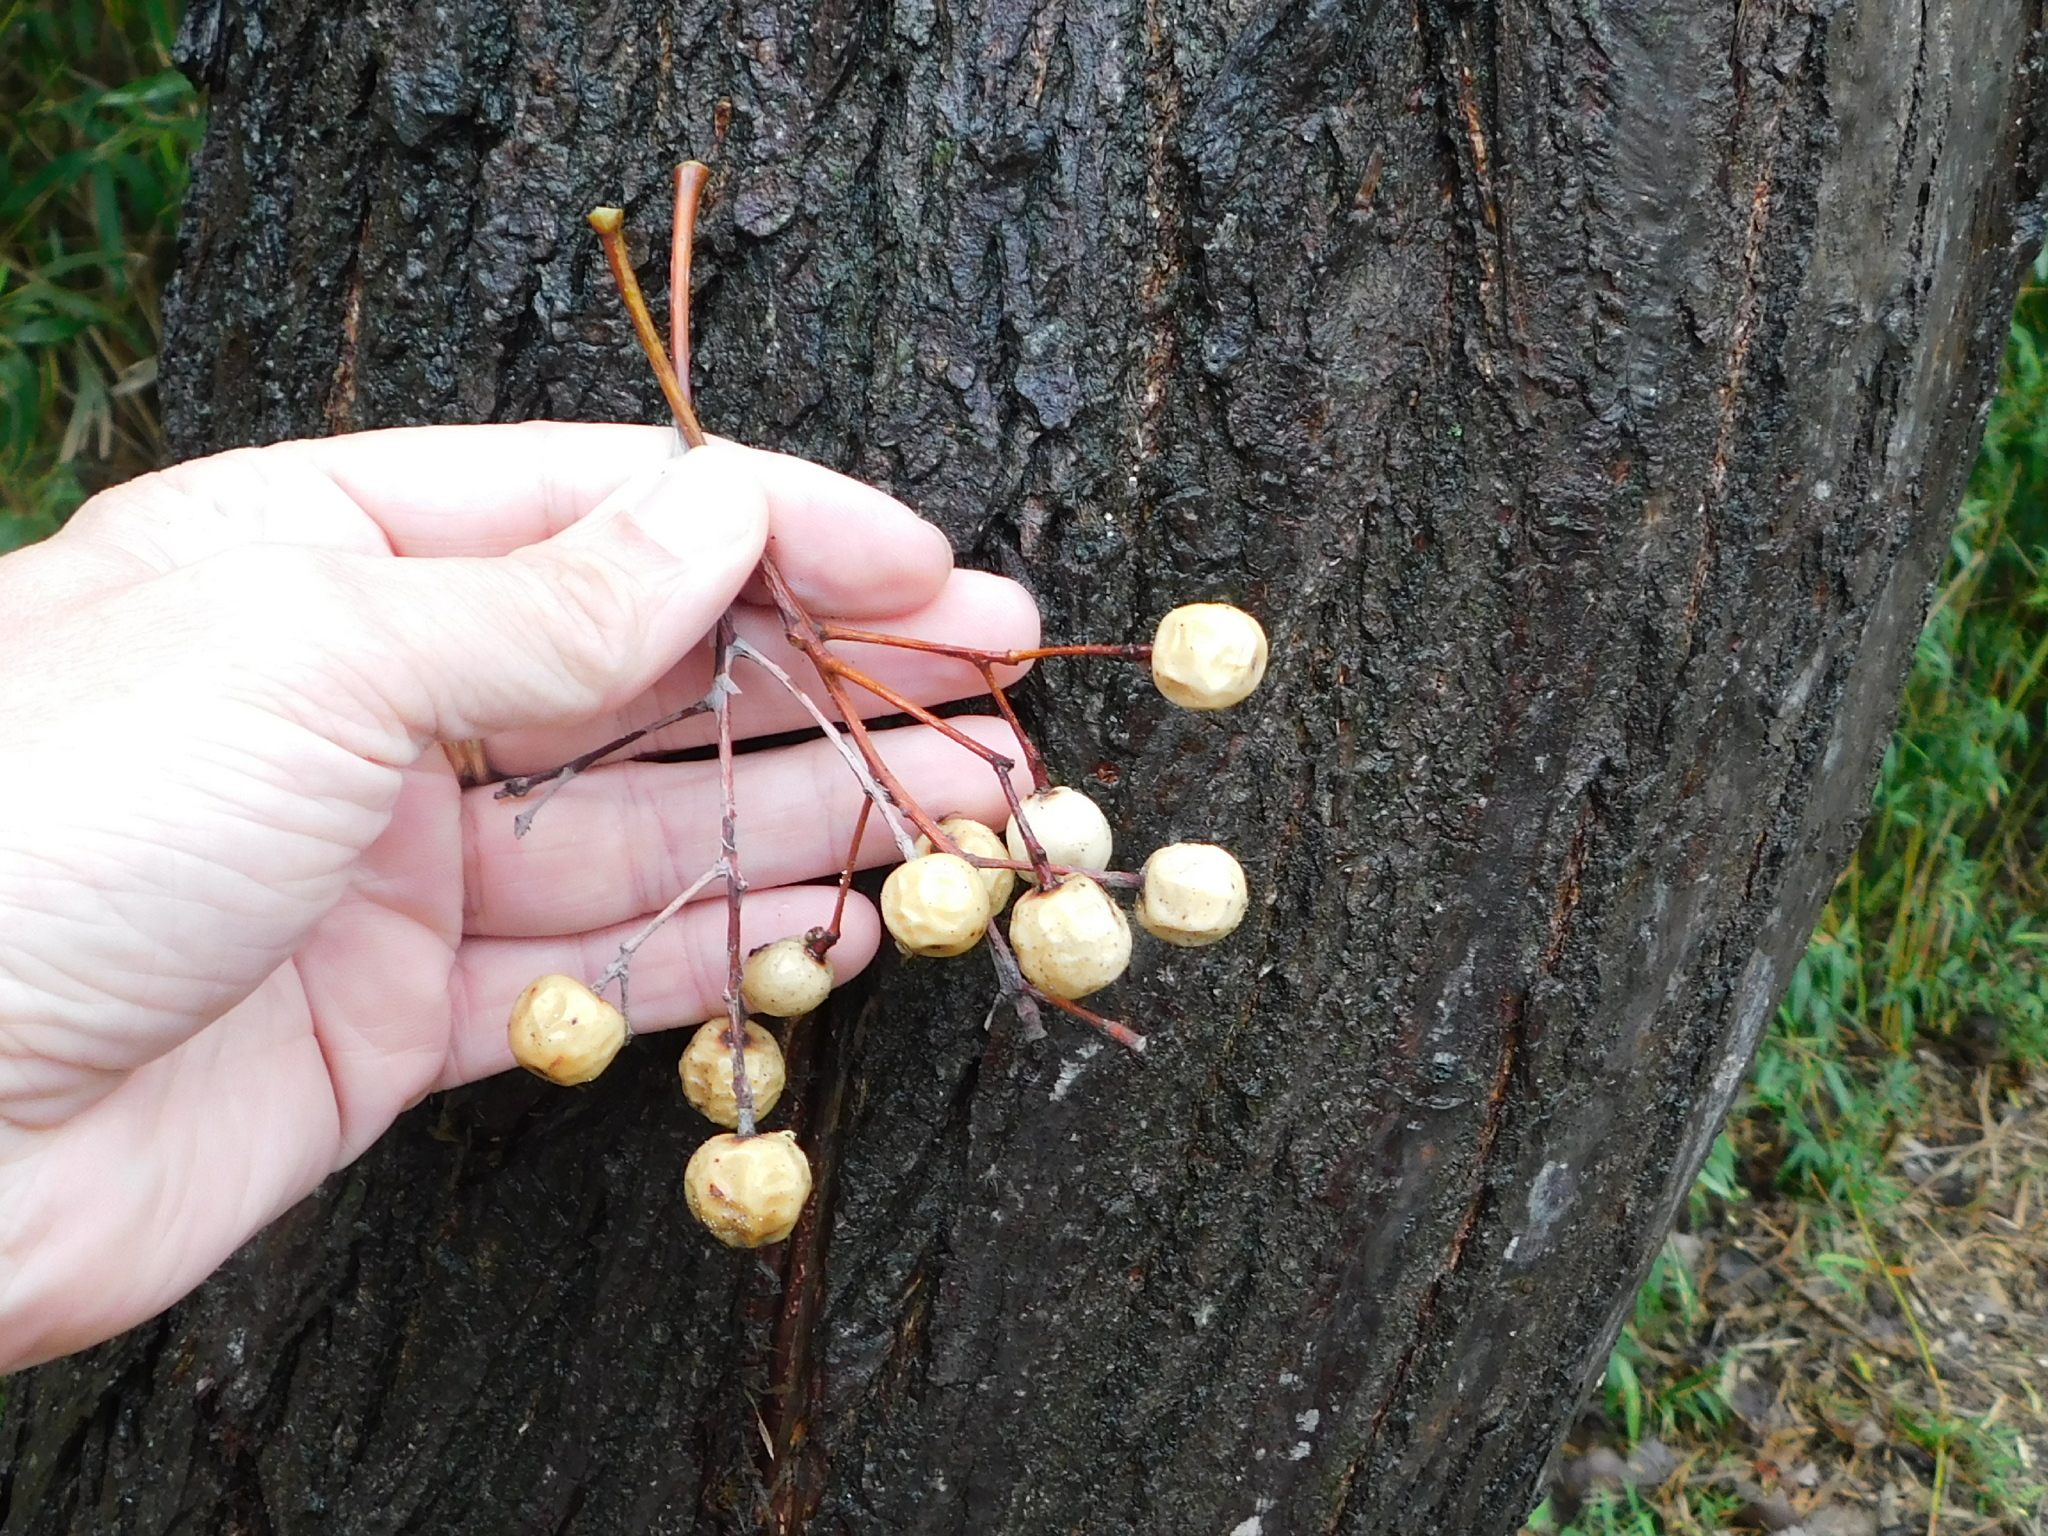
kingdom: Plantae
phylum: Tracheophyta
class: Magnoliopsida
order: Sapindales
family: Meliaceae
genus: Melia
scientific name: Melia azedarach
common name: Chinaberrytree
